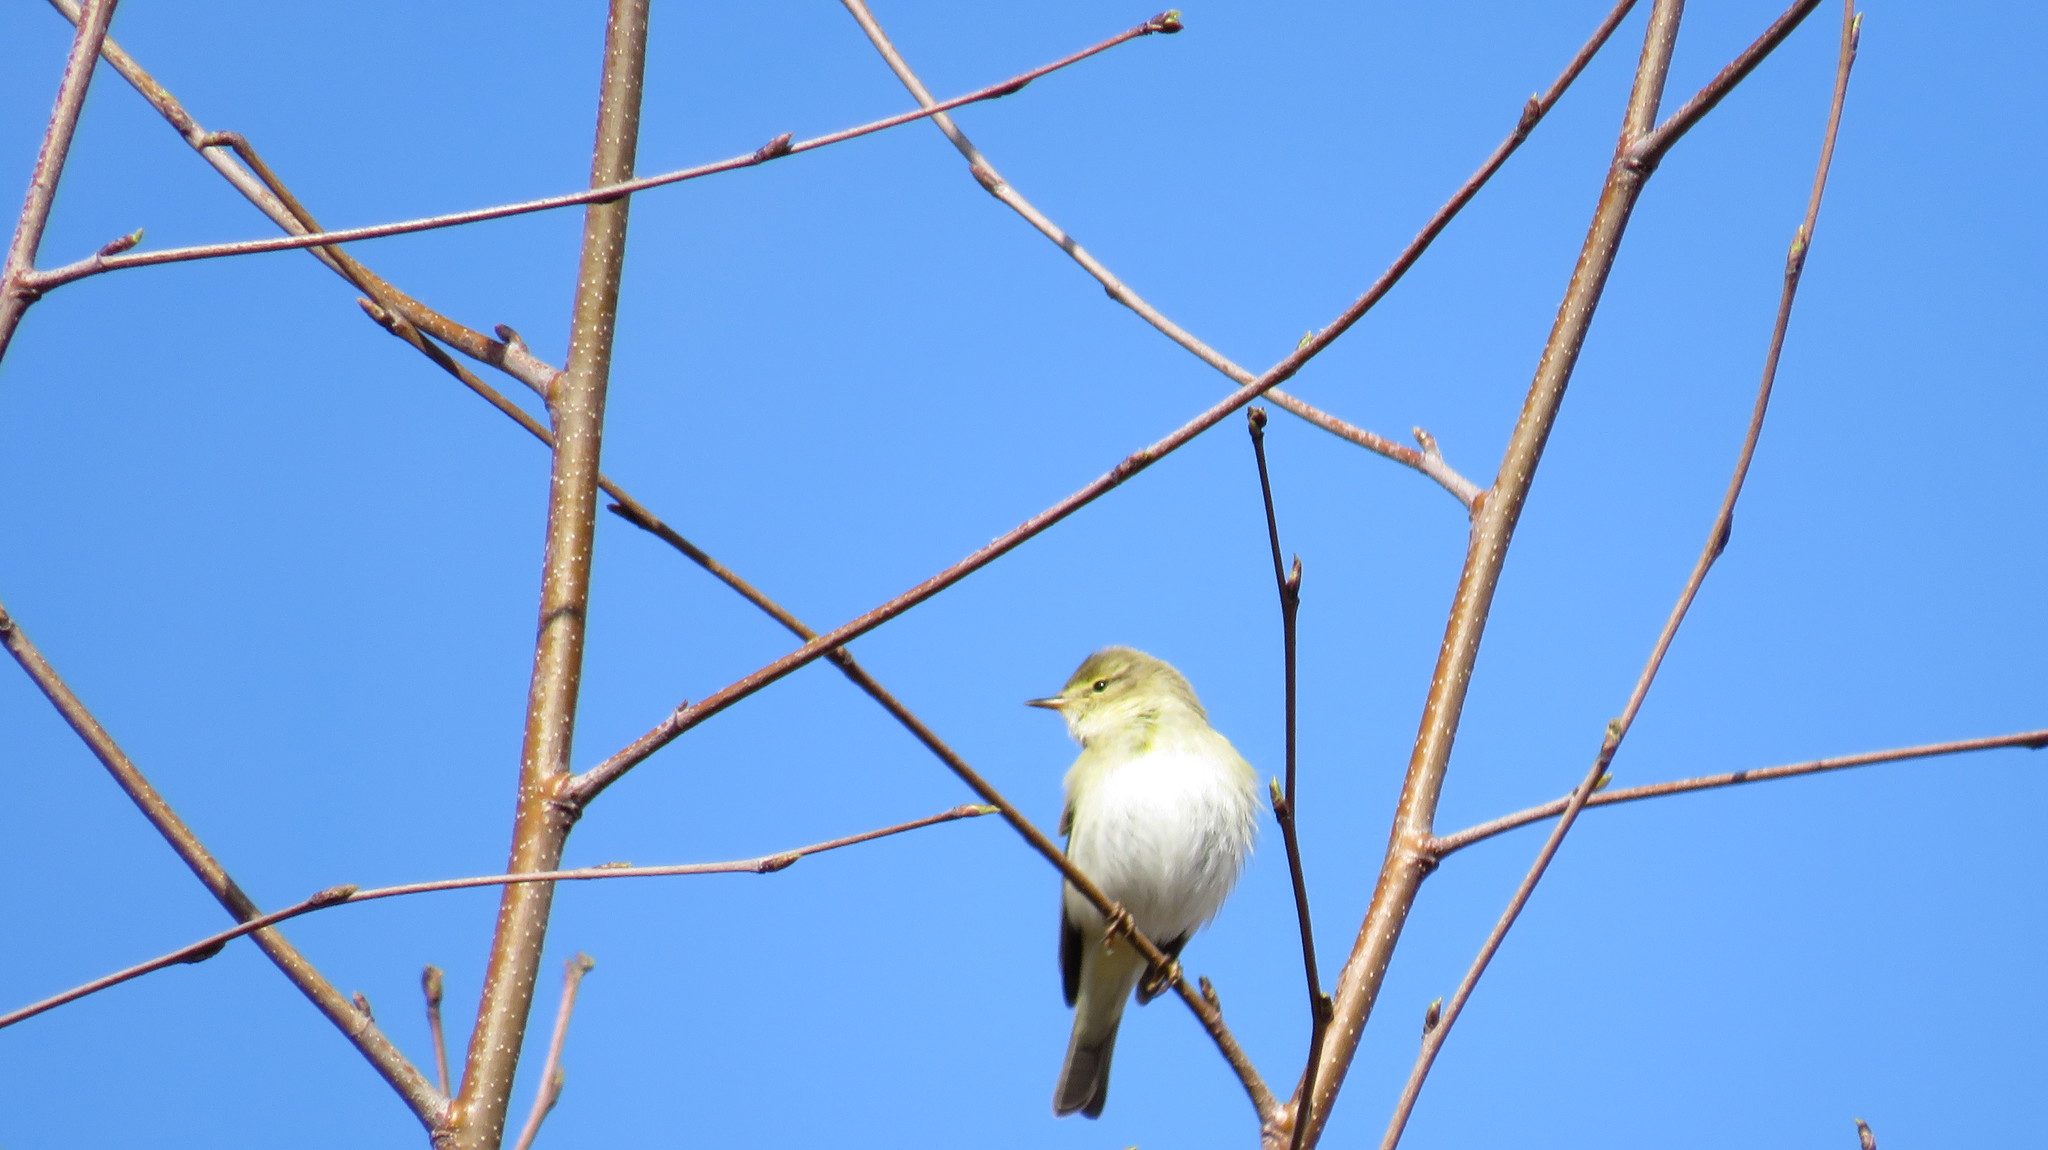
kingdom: Animalia
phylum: Chordata
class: Aves
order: Passeriformes
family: Phylloscopidae
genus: Phylloscopus
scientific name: Phylloscopus trochilus
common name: Willow warbler
